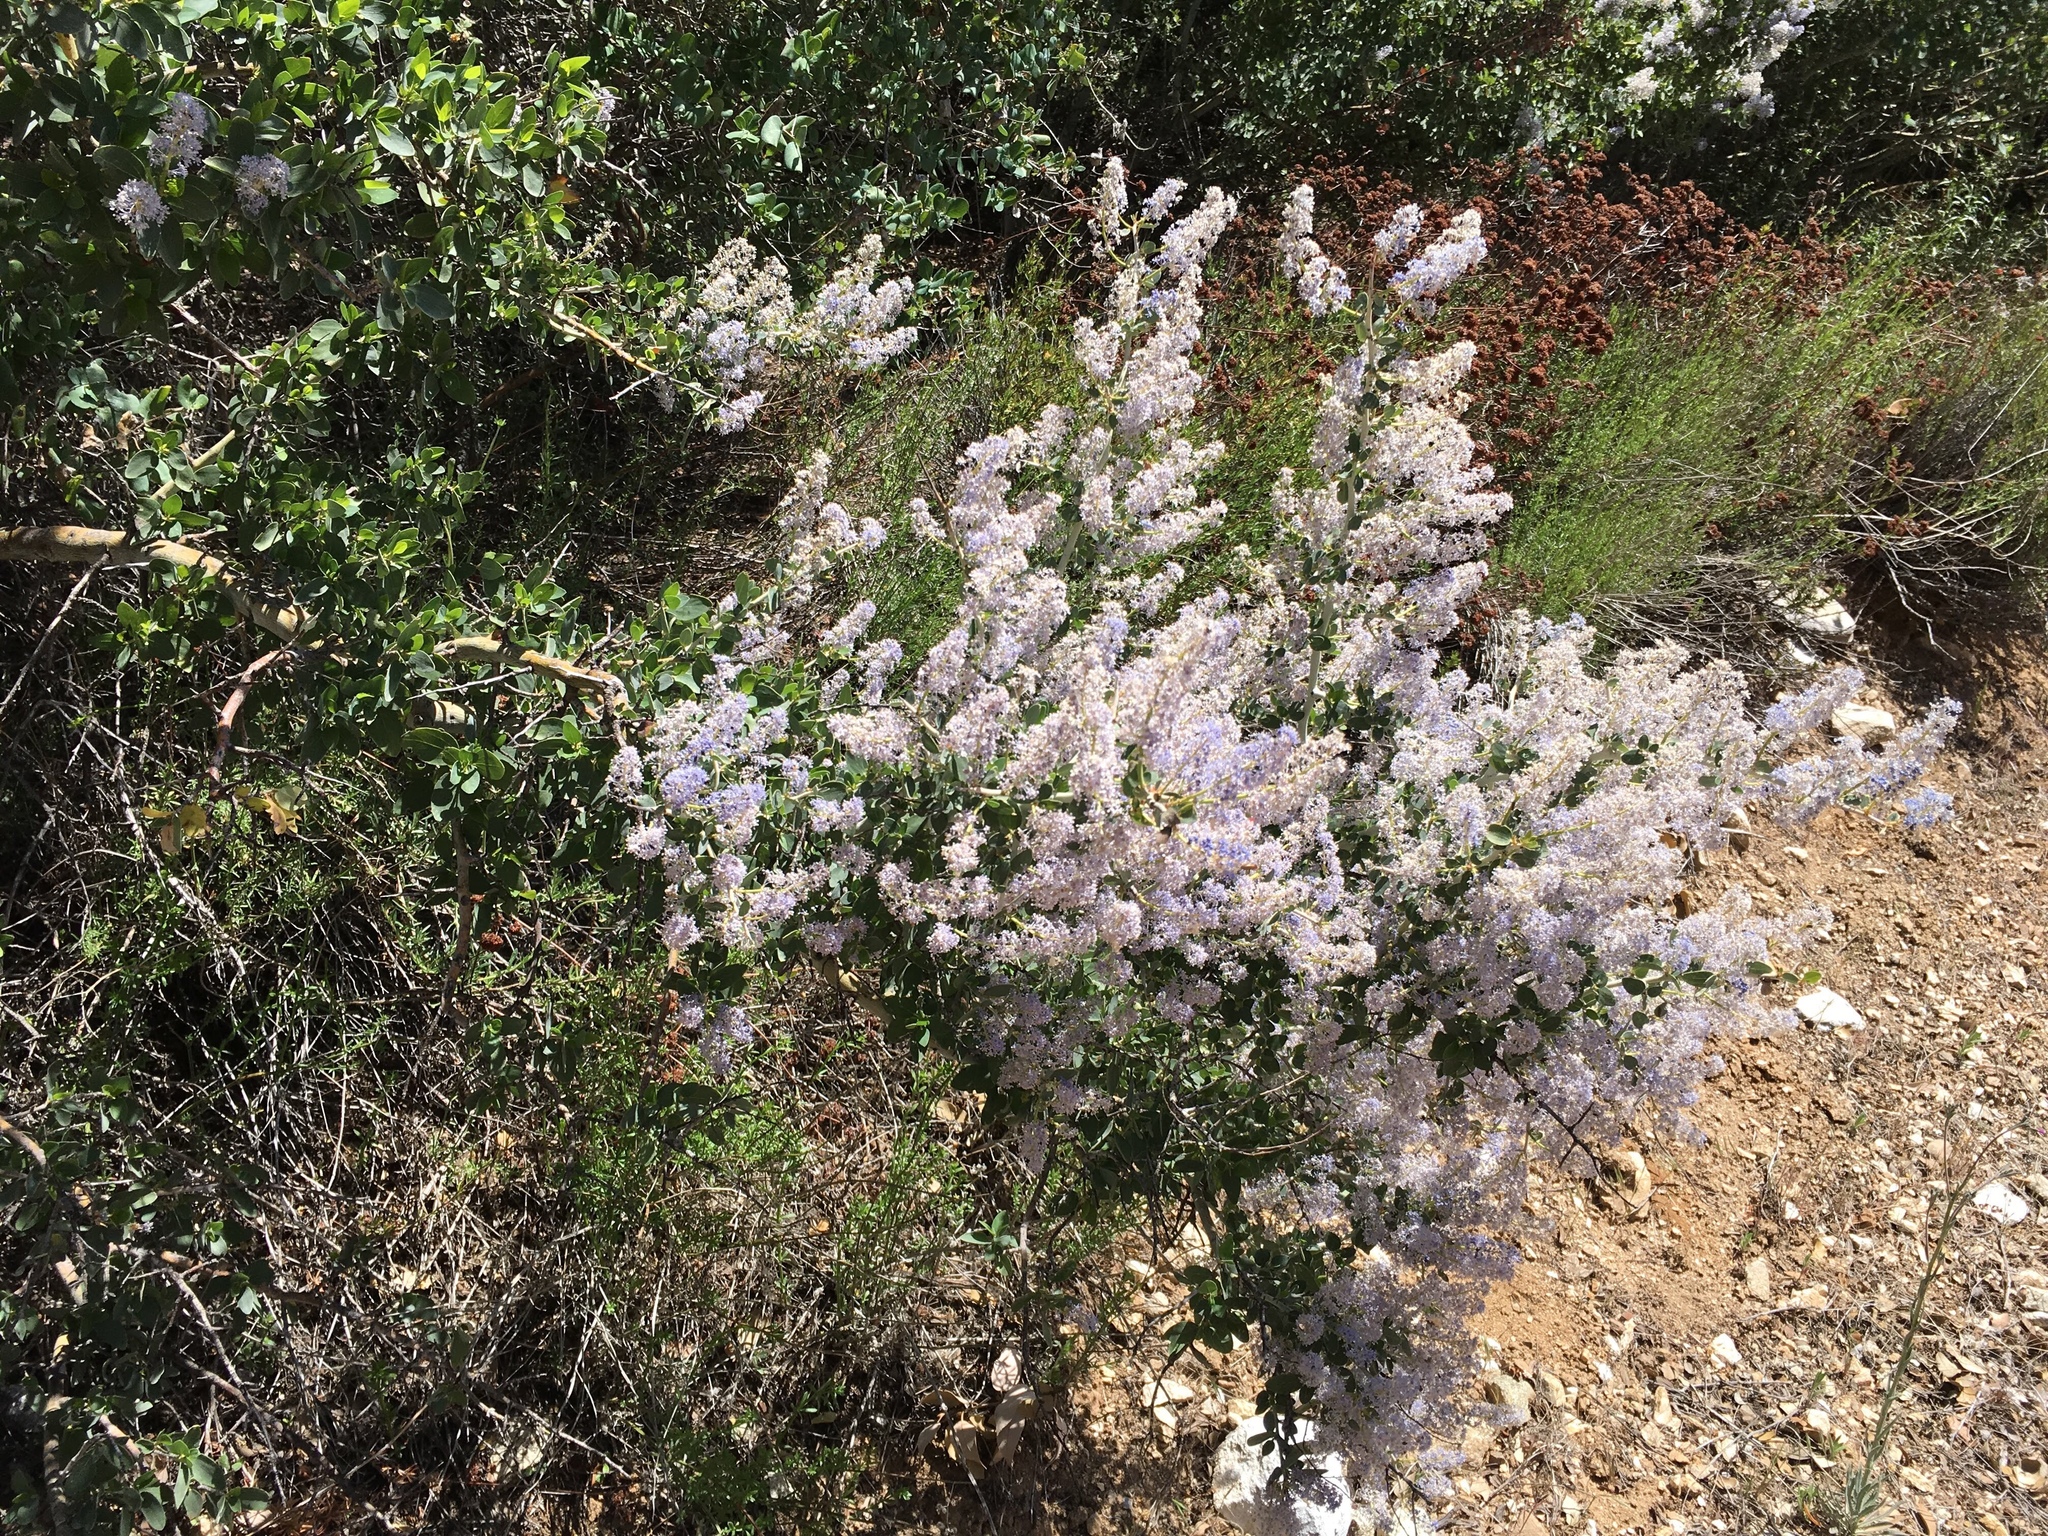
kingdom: Plantae
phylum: Tracheophyta
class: Magnoliopsida
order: Rosales
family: Rhamnaceae
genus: Ceanothus
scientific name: Ceanothus leucodermis
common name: Chaparral whitethorn
